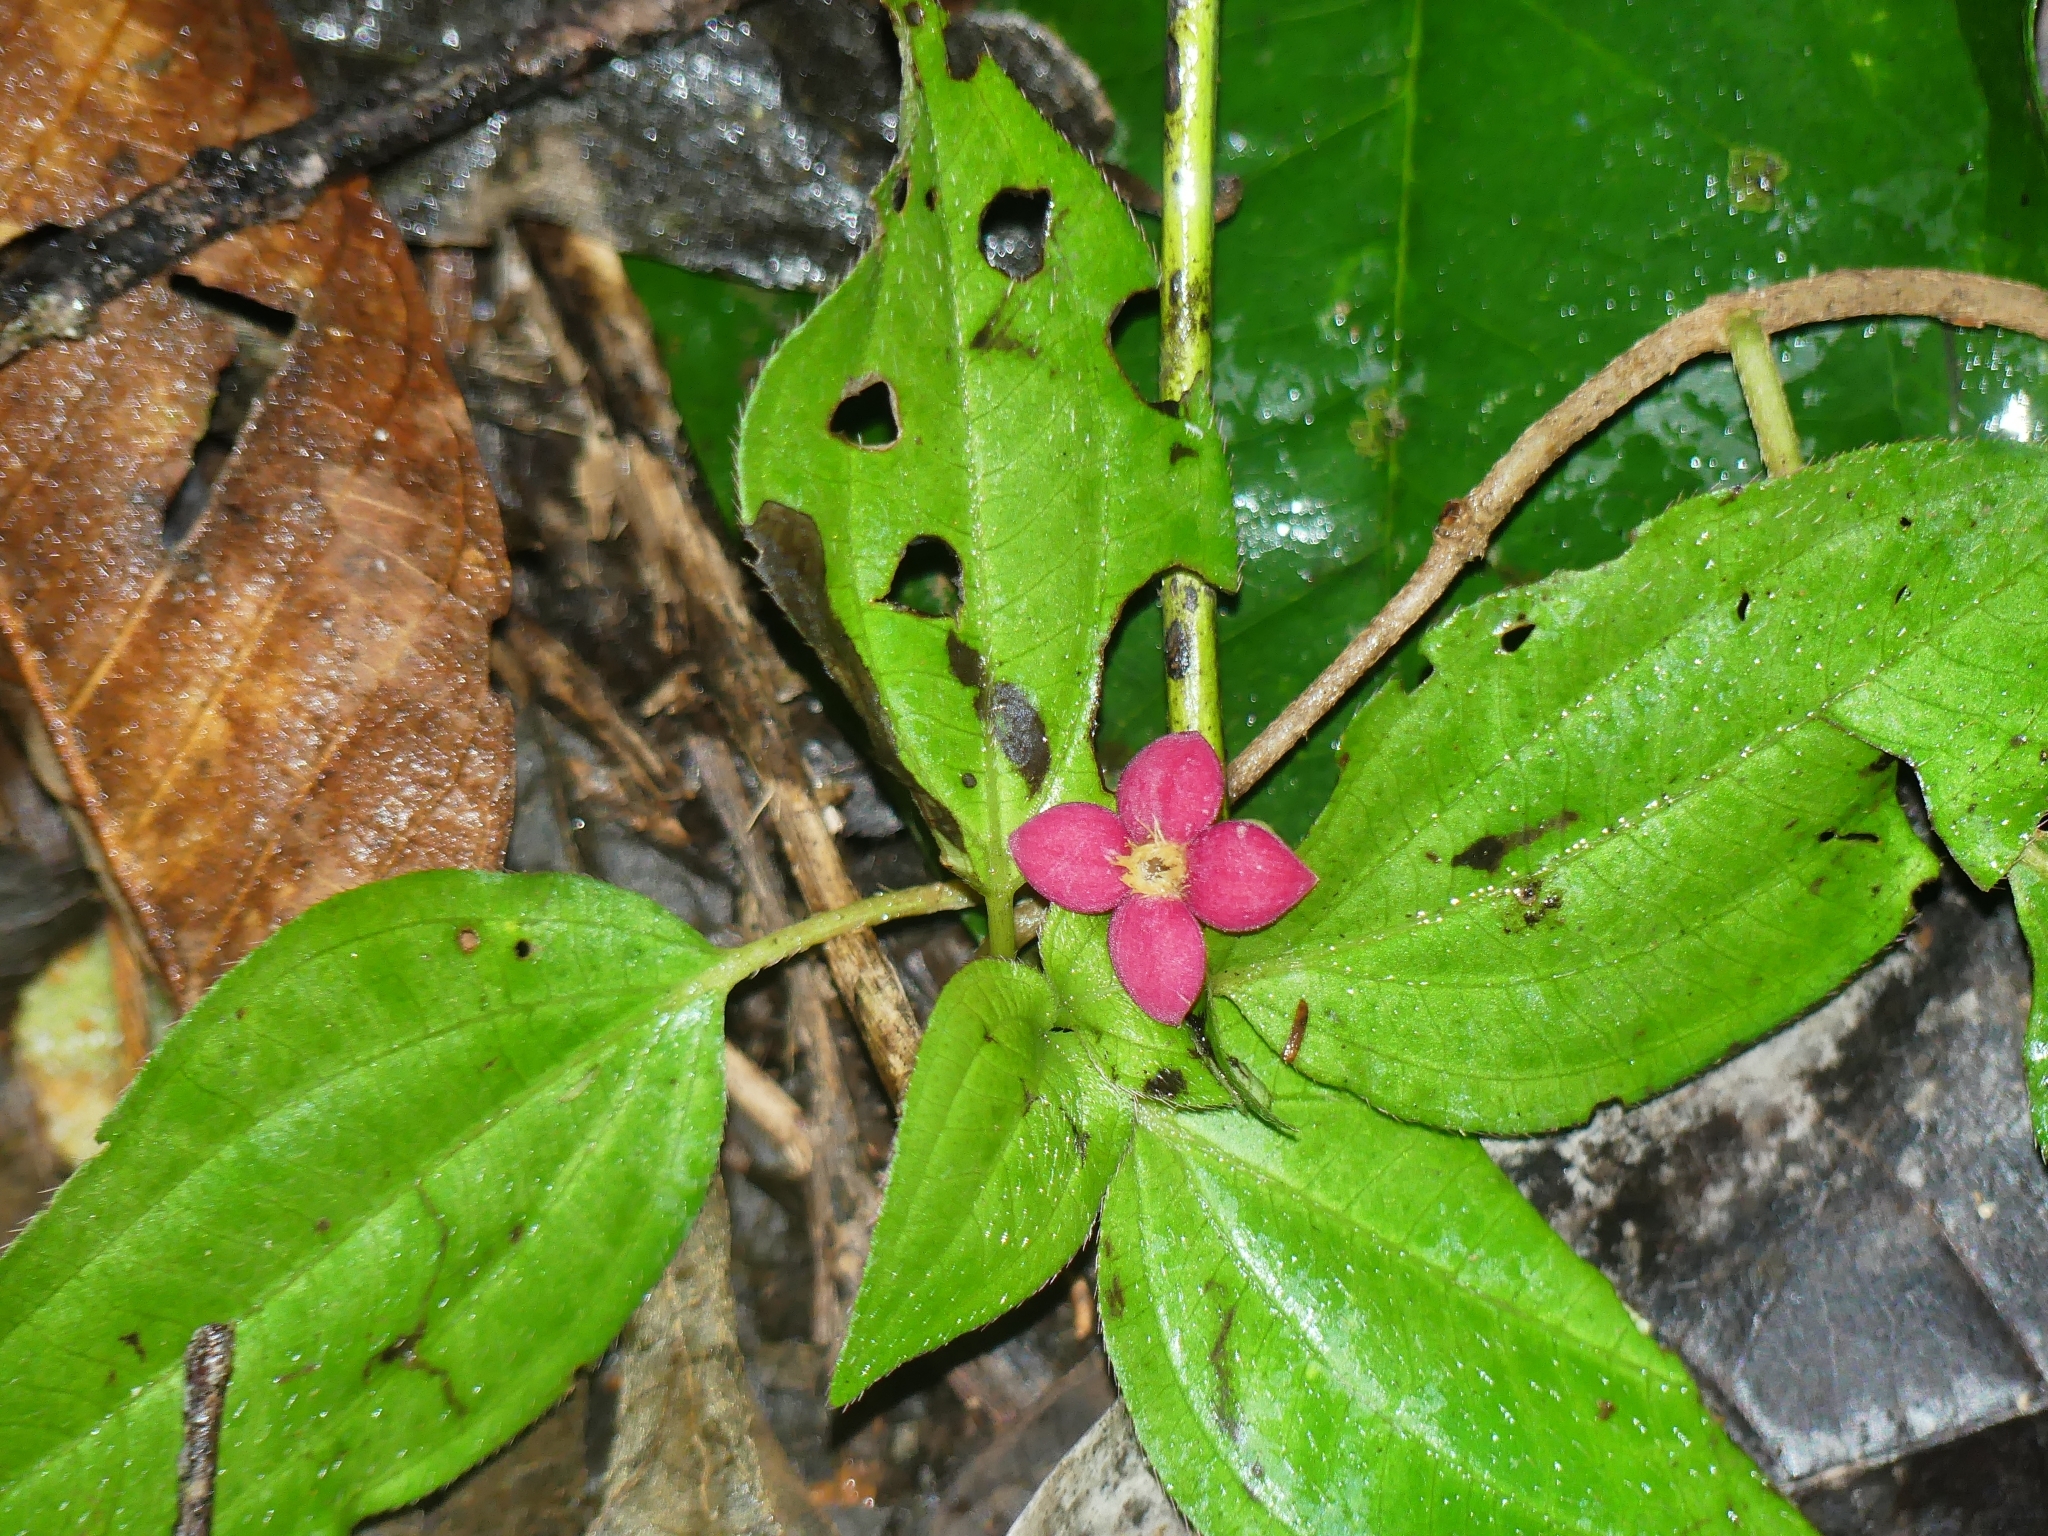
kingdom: Plantae
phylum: Tracheophyta
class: Magnoliopsida
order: Gentianales
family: Rubiaceae
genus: Manettia
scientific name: Manettia coccinea
